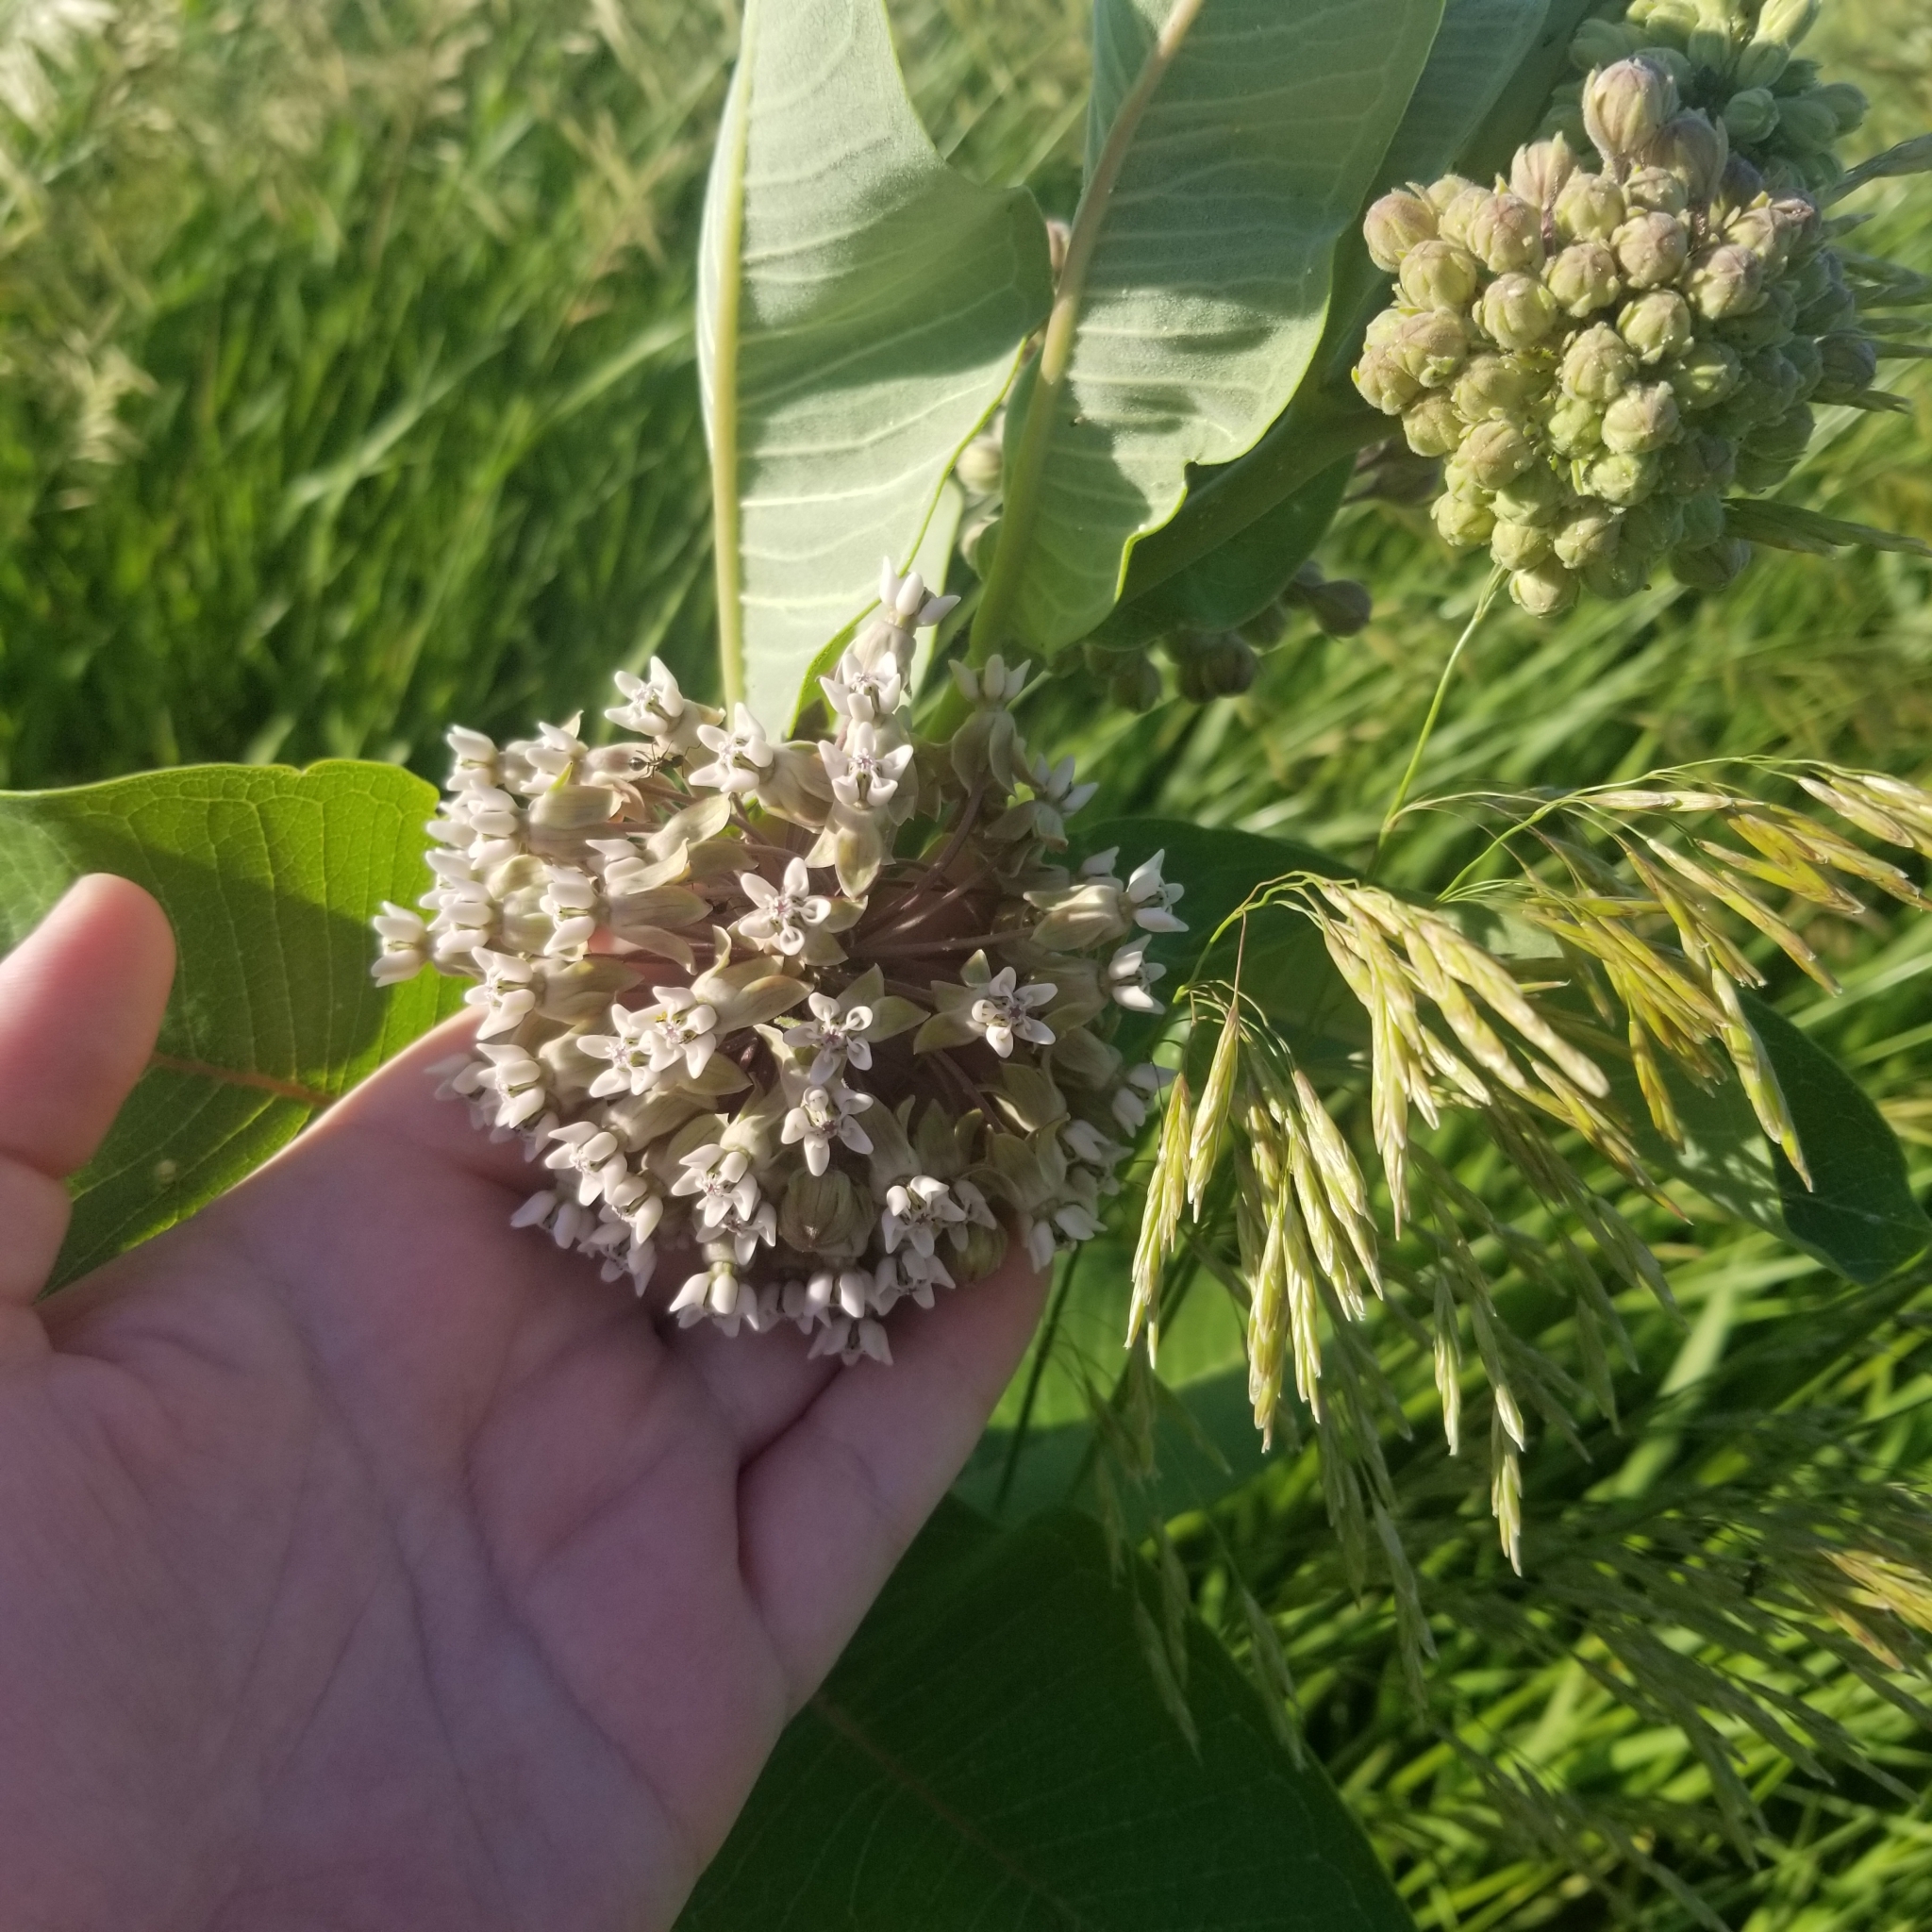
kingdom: Plantae
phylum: Tracheophyta
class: Magnoliopsida
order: Gentianales
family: Apocynaceae
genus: Asclepias
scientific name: Asclepias syriaca
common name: Common milkweed
